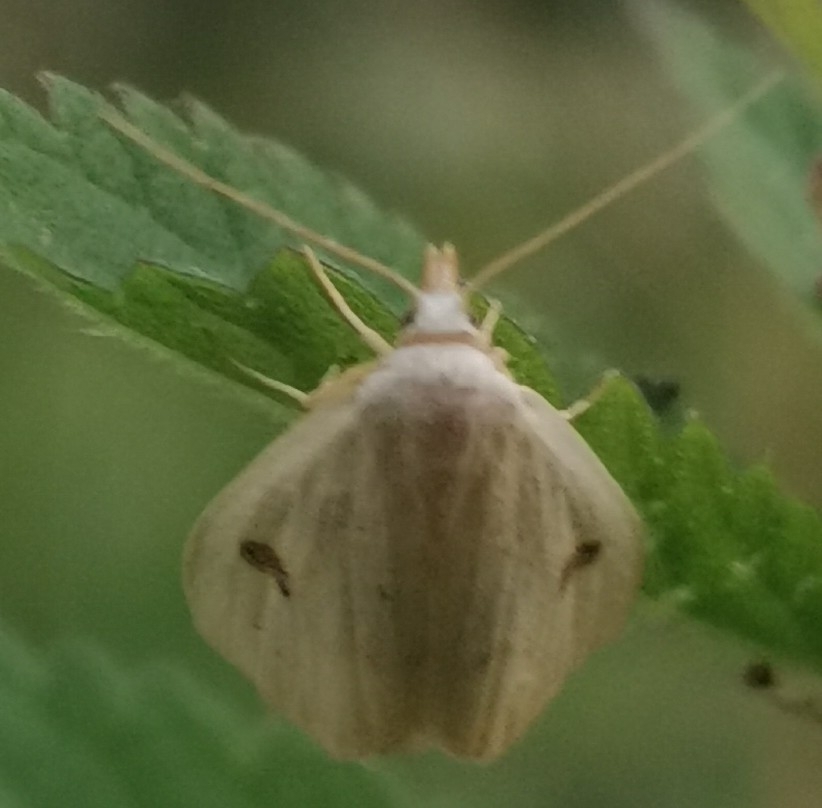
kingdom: Animalia
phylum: Arthropoda
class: Insecta
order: Lepidoptera
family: Erebidae
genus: Rivula
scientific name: Rivula sericealis
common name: Straw dot
